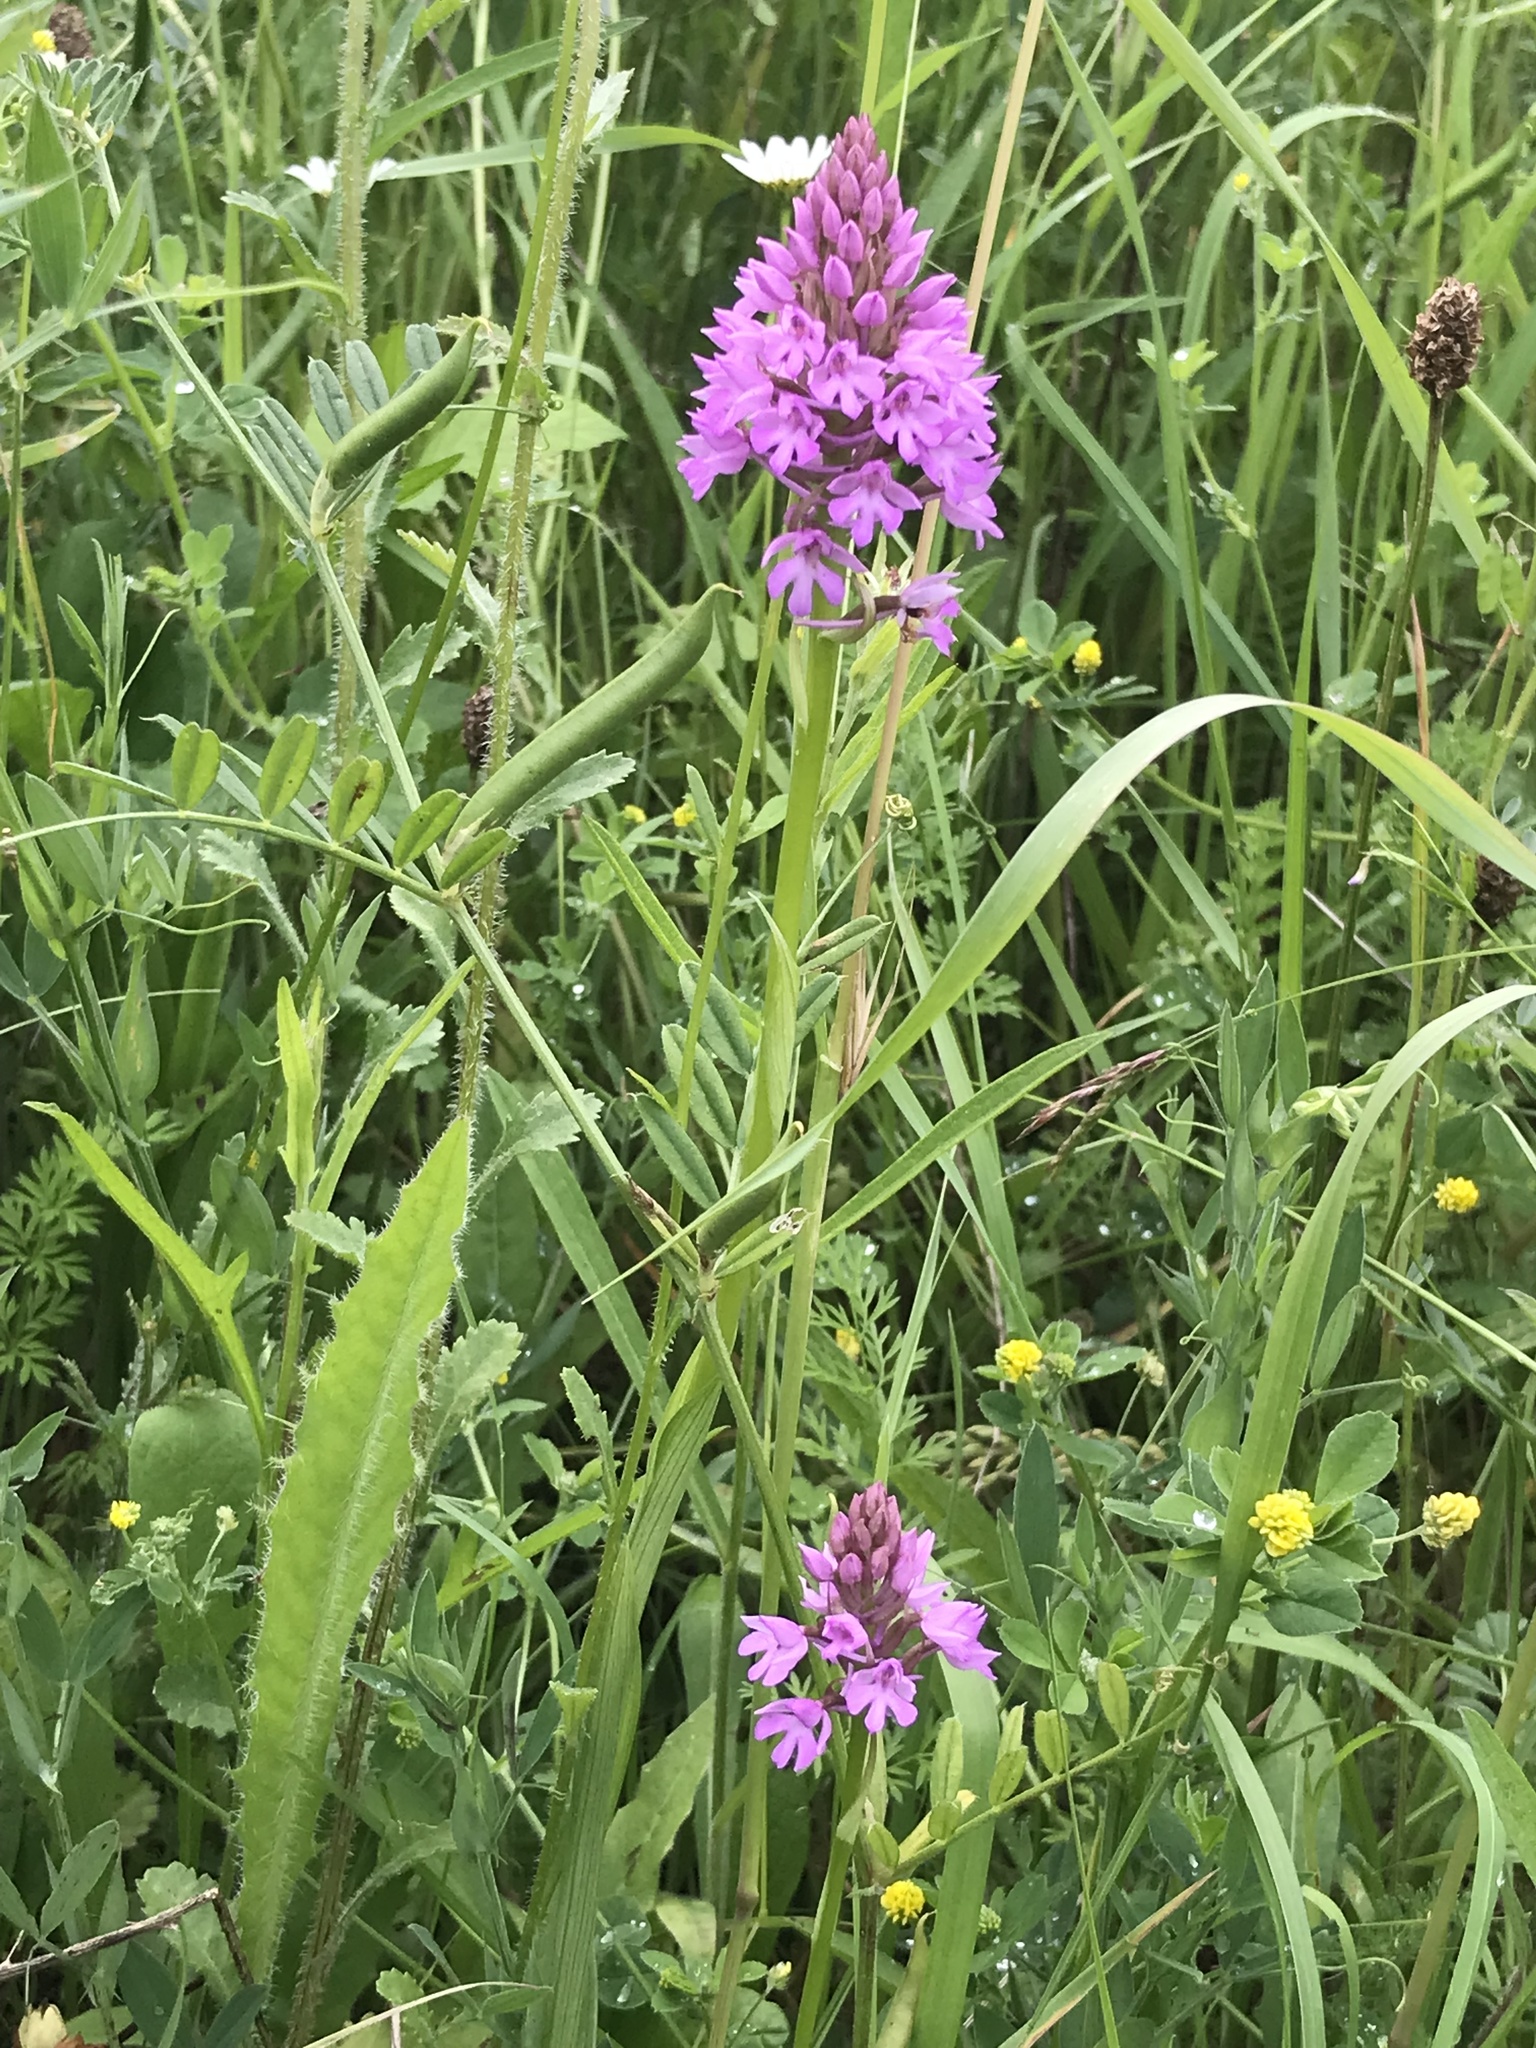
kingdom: Plantae
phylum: Tracheophyta
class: Liliopsida
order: Asparagales
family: Orchidaceae
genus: Anacamptis
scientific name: Anacamptis pyramidalis
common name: Pyramidal orchid
